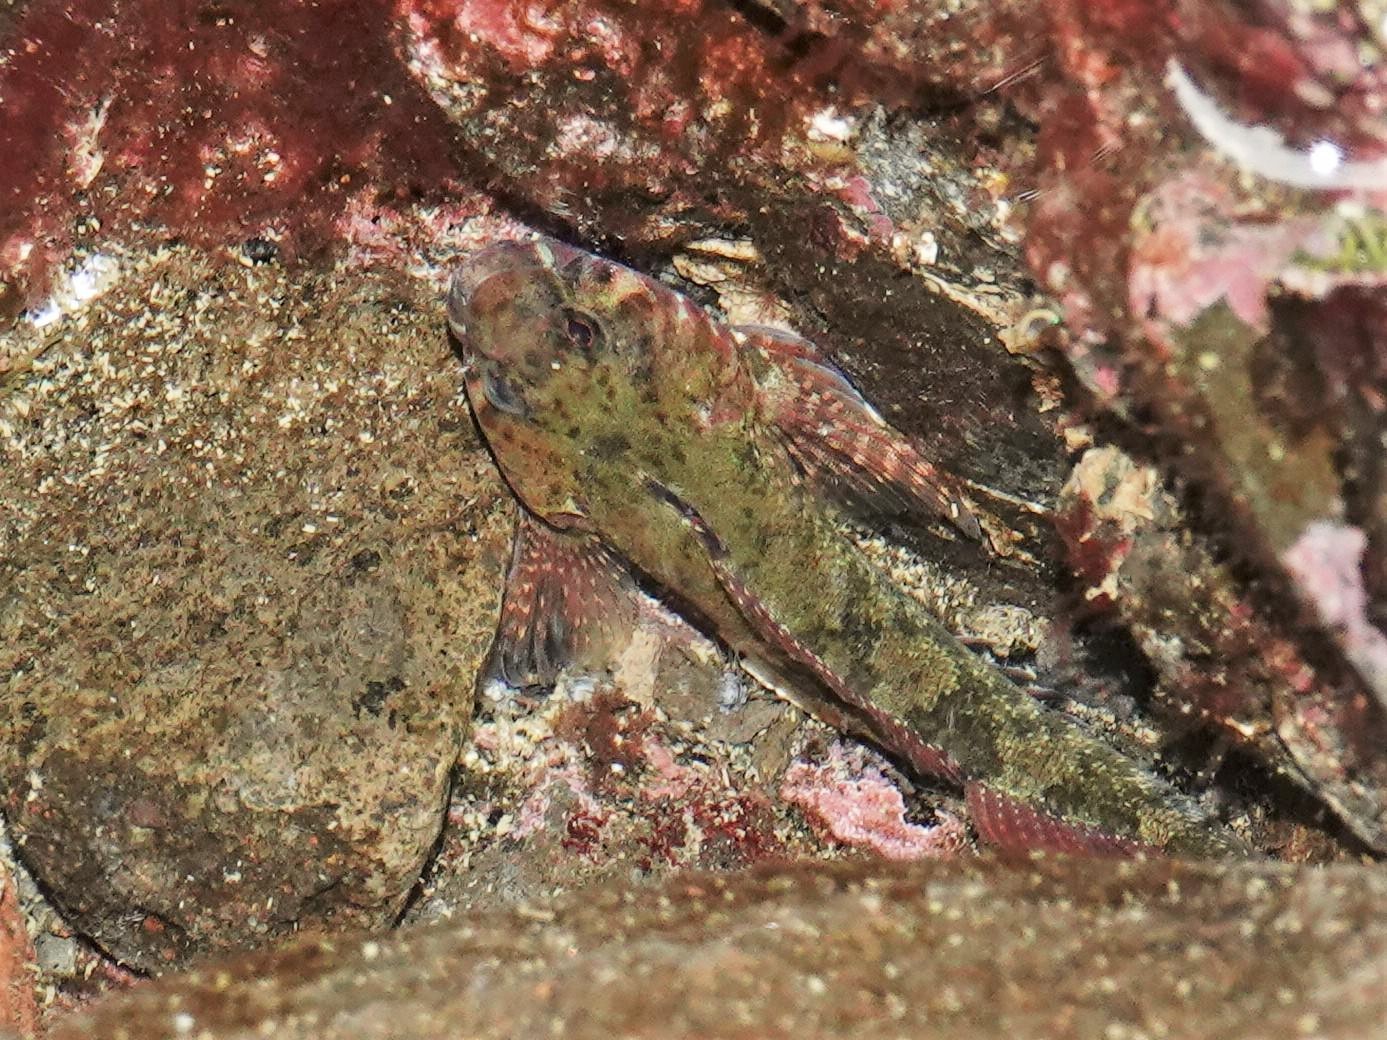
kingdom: Animalia
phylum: Chordata
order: Perciformes
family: Tripterygiidae
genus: Bellapiscis
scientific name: Bellapiscis medius
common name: Twister
